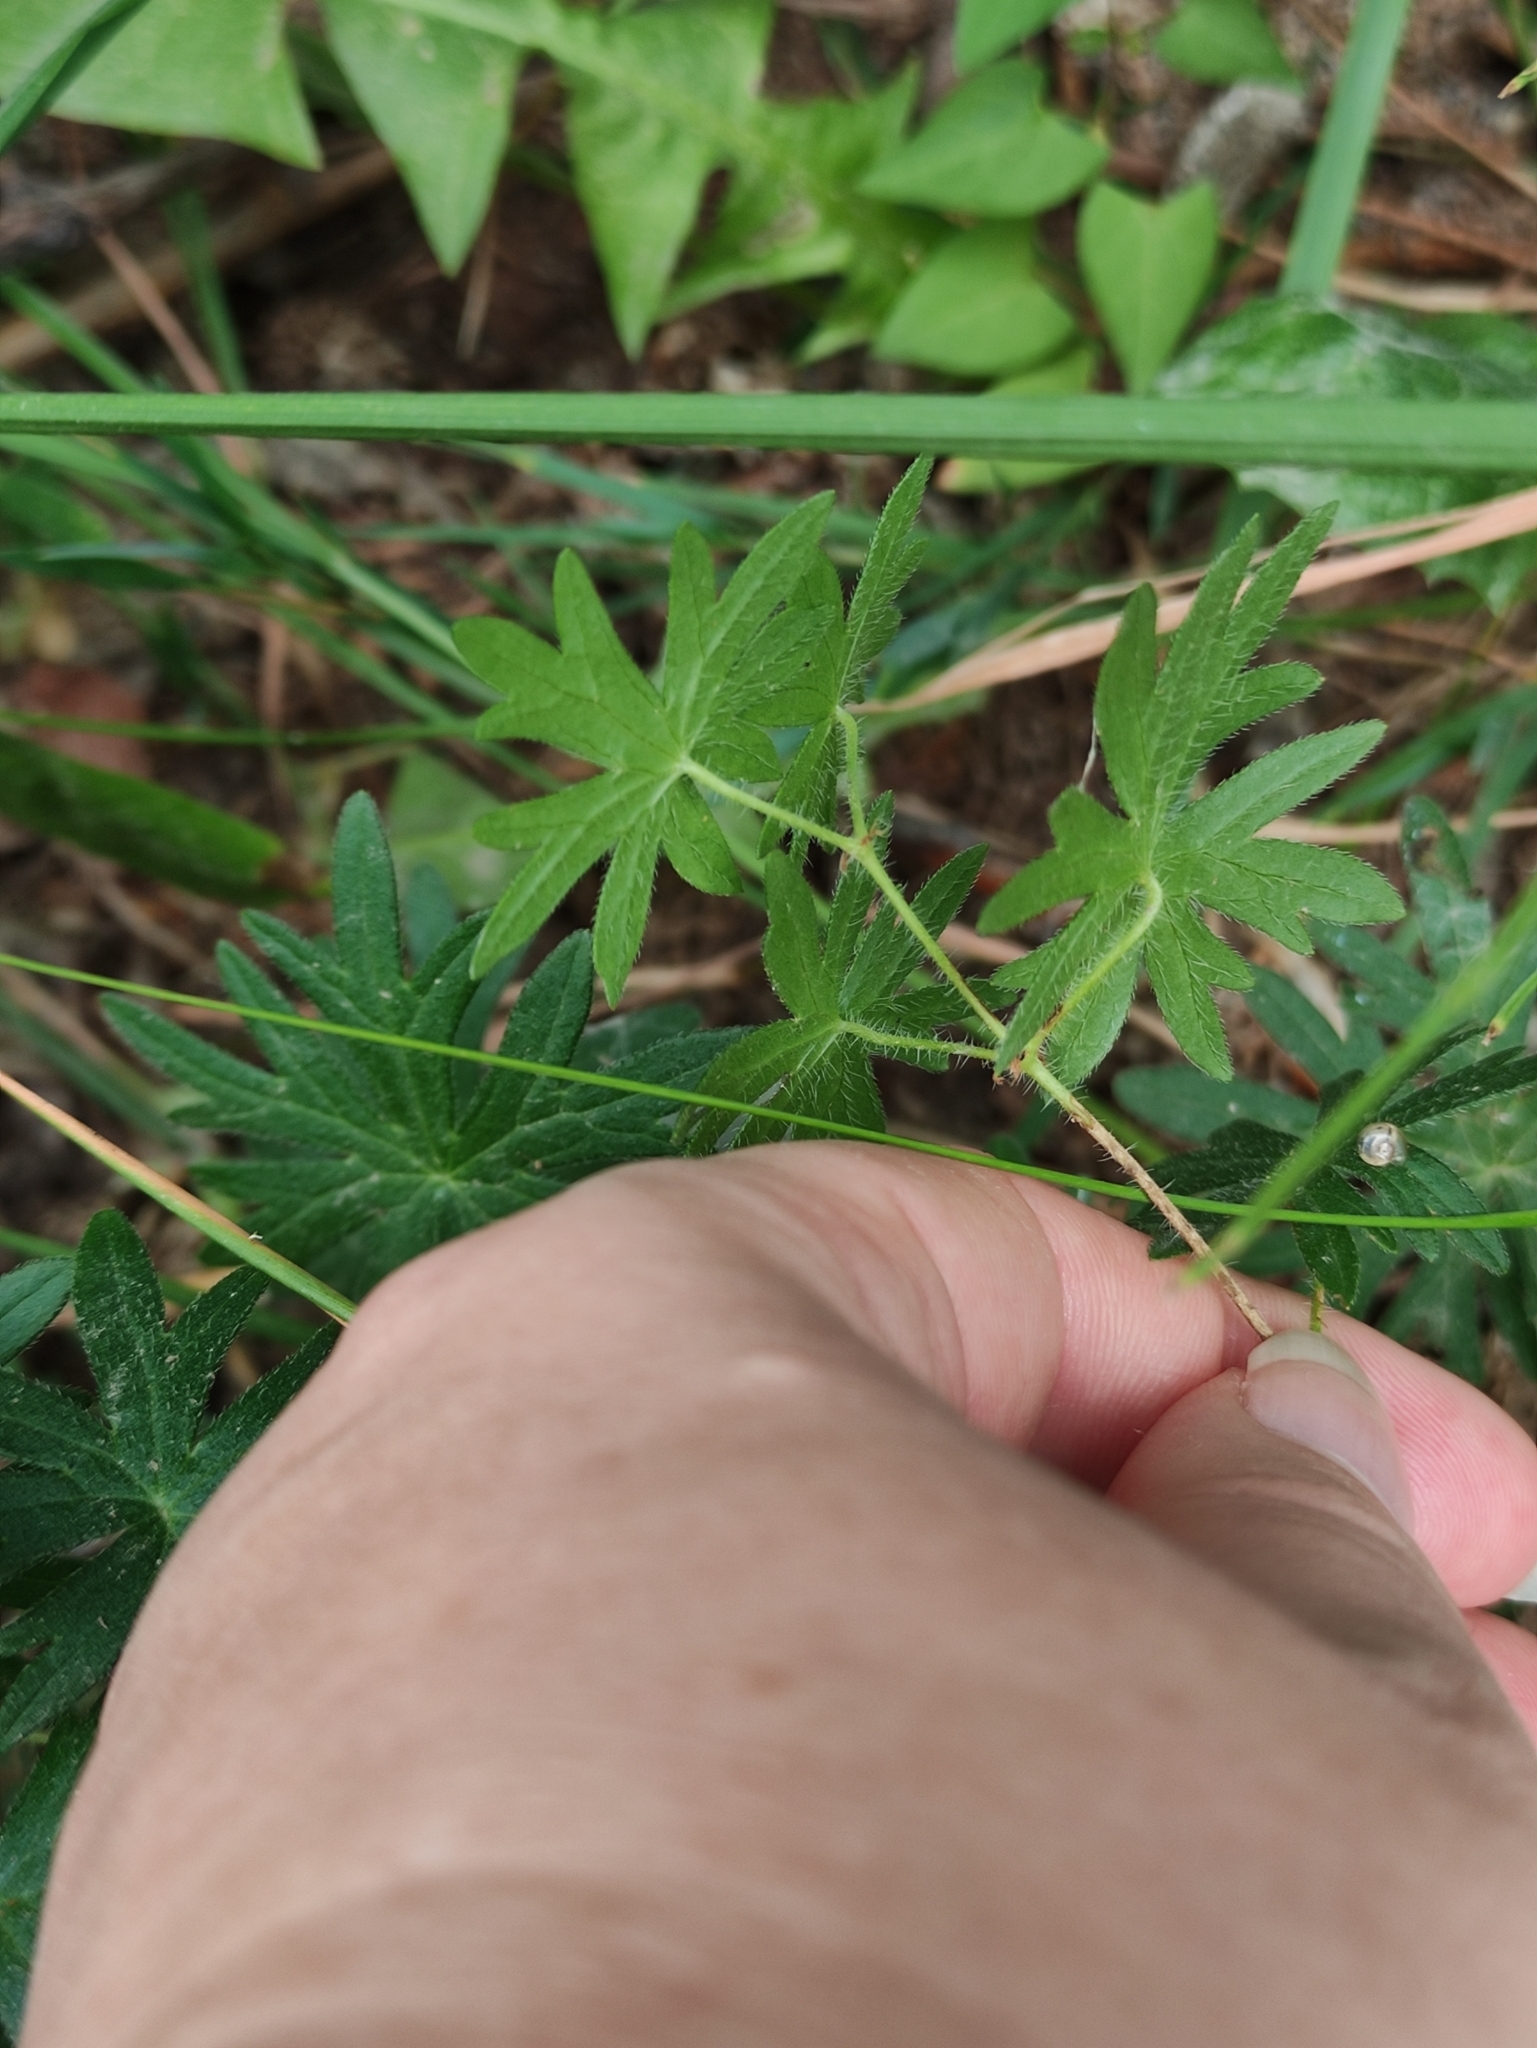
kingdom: Plantae
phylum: Tracheophyta
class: Magnoliopsida
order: Geraniales
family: Geraniaceae
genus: Geranium
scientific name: Geranium sanguineum
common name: Bloody crane's-bill
